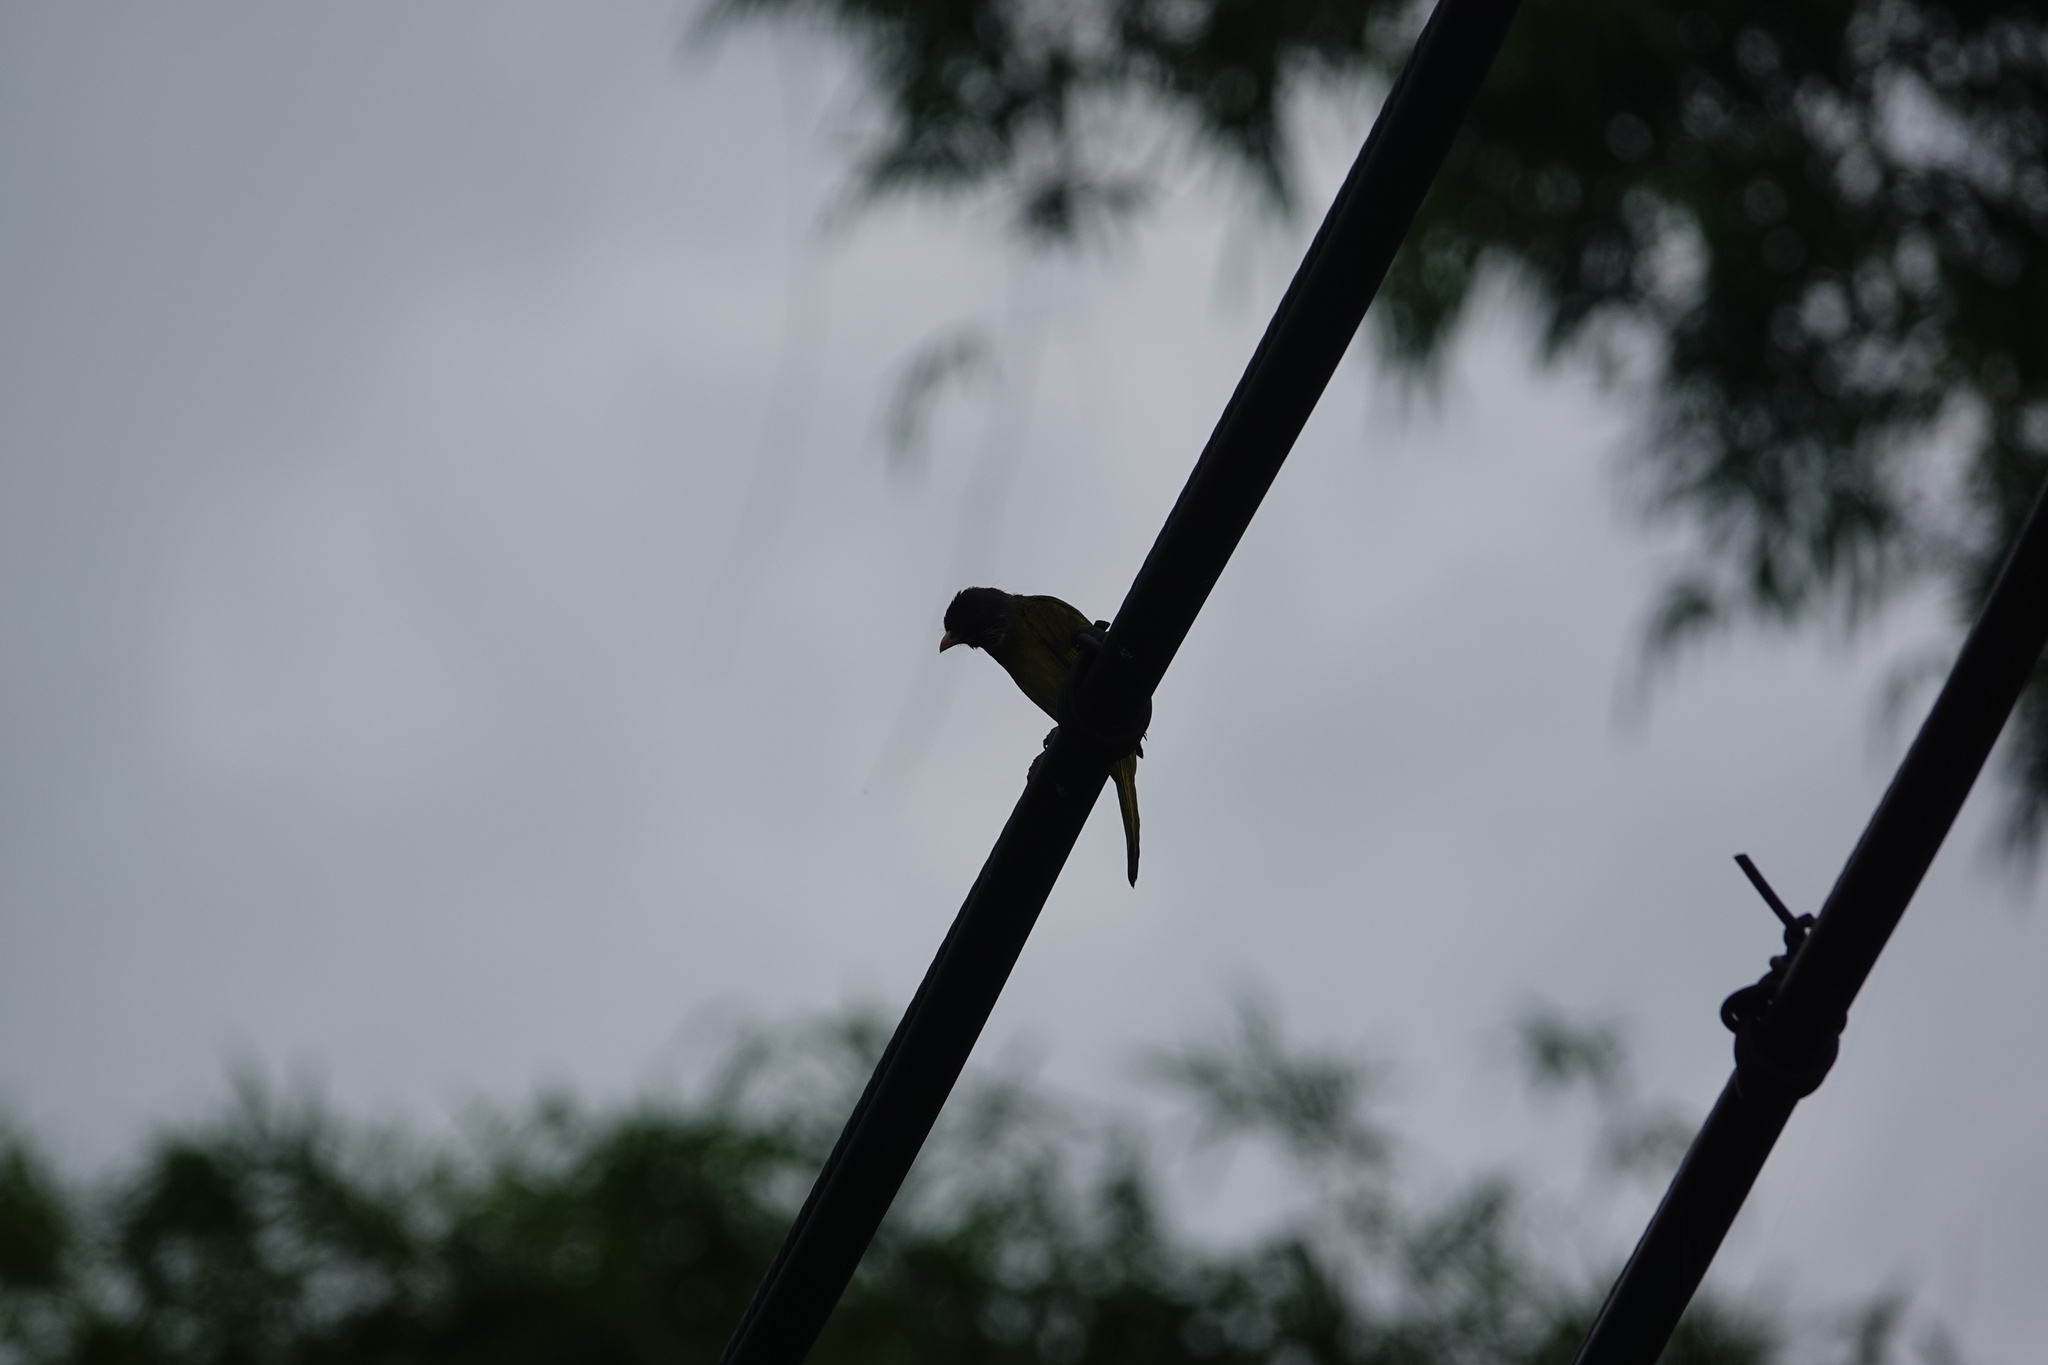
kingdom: Animalia
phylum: Chordata
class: Aves
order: Passeriformes
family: Pycnonotidae
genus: Spizixos
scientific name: Spizixos semitorques
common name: Collared finchbill
